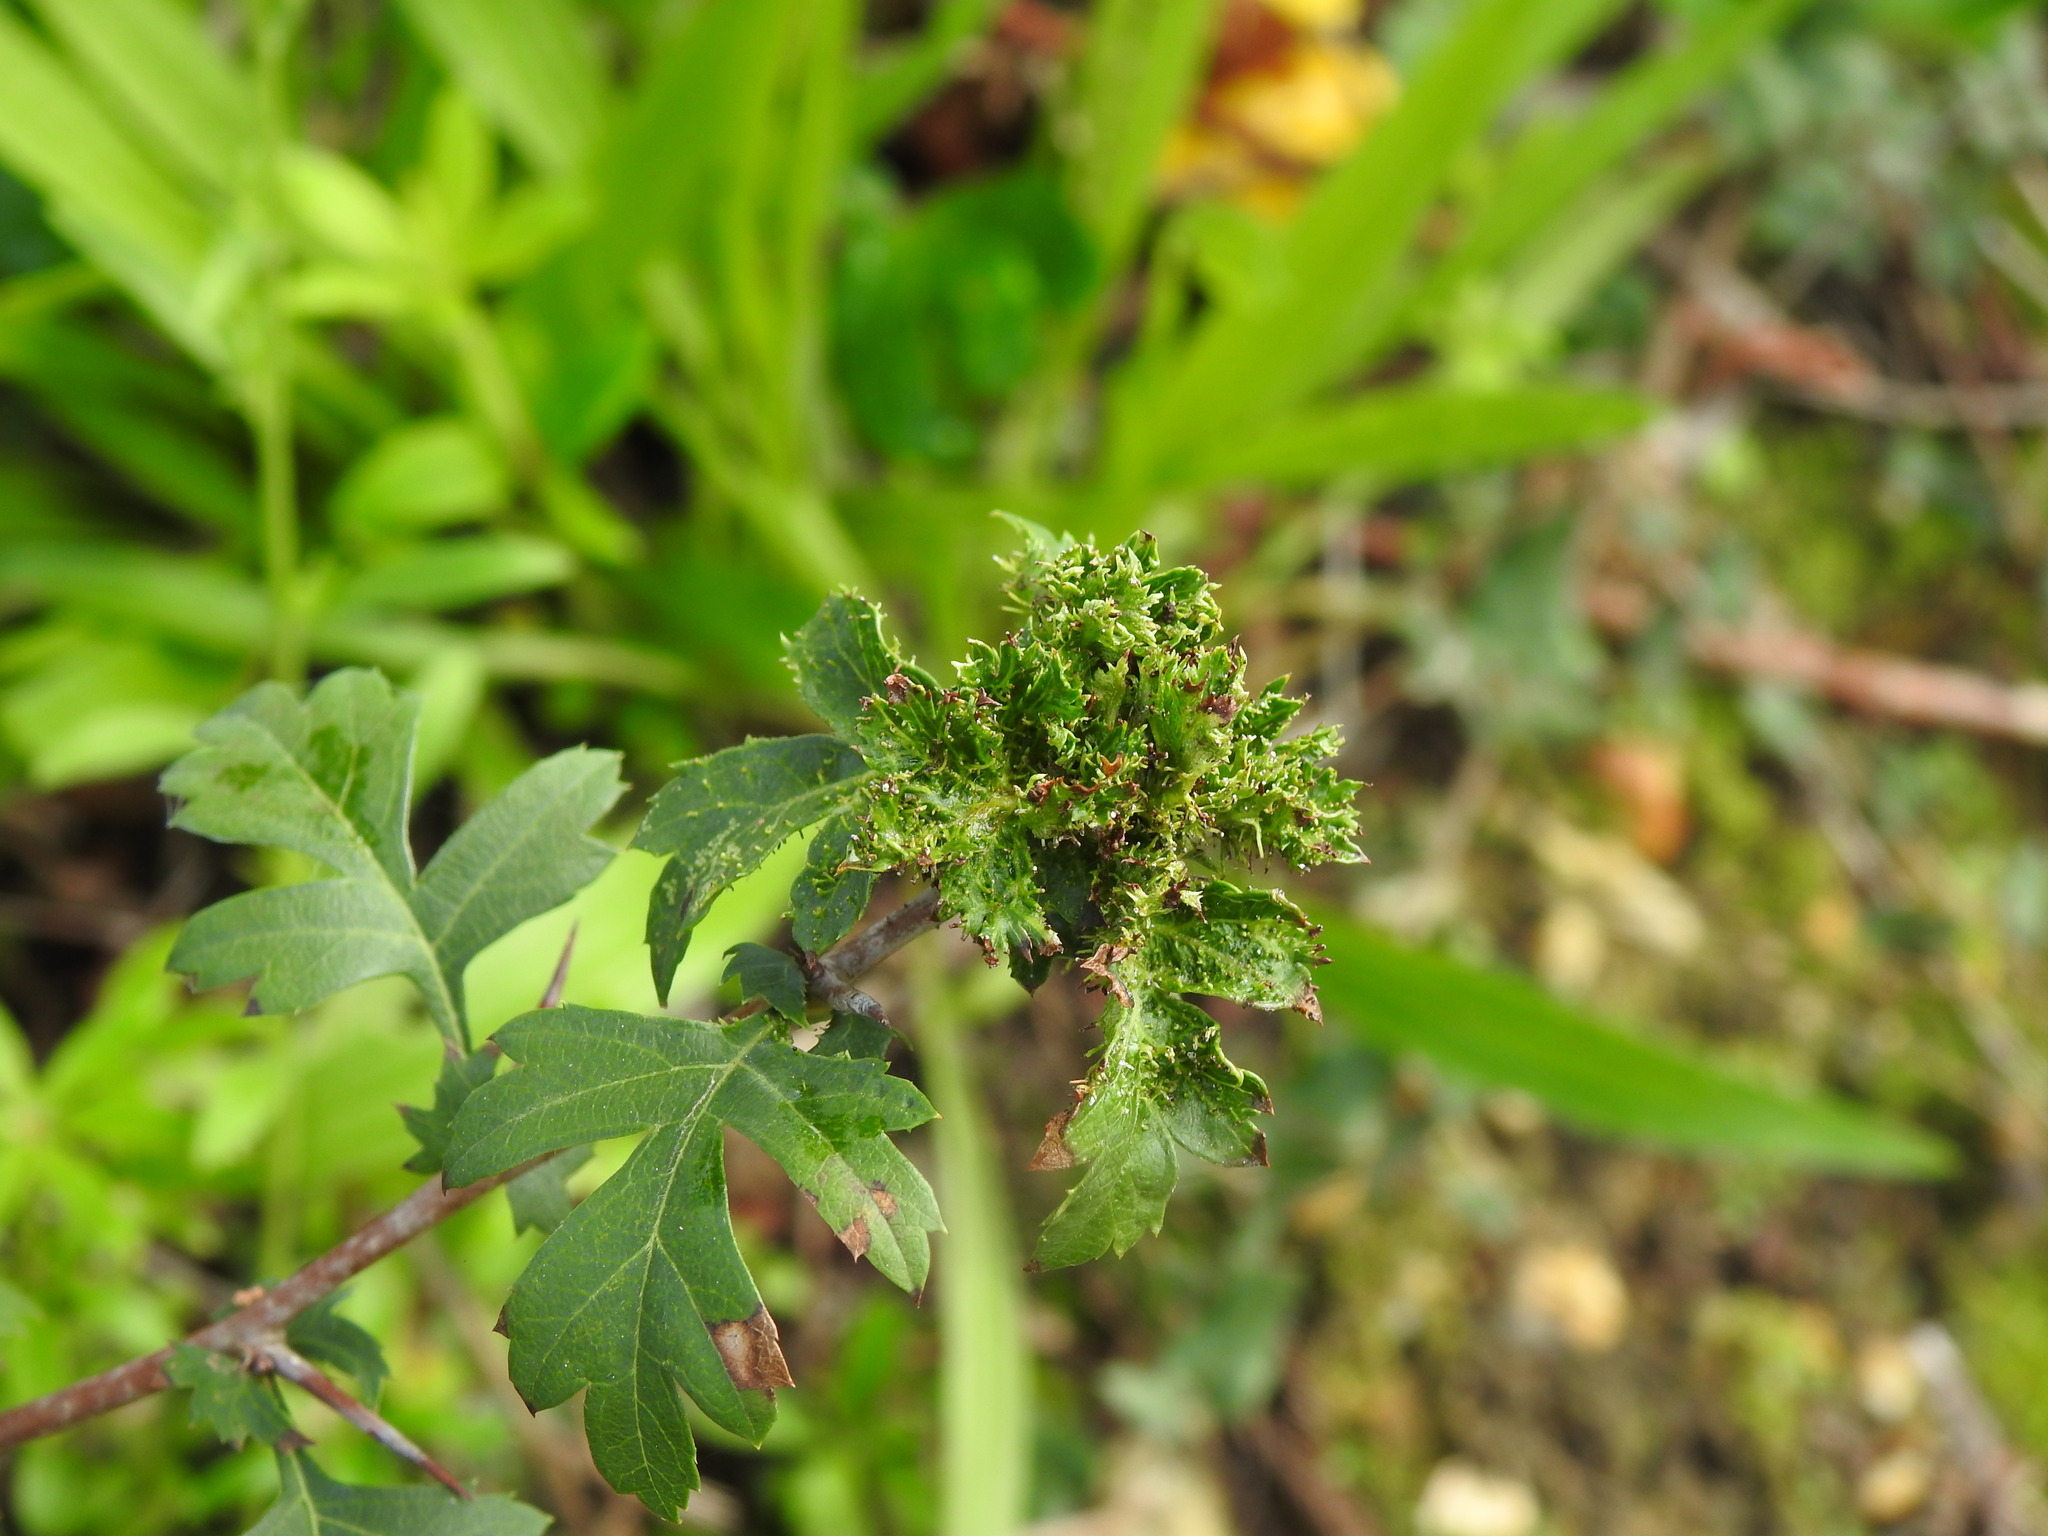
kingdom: Animalia
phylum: Arthropoda
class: Insecta
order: Diptera
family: Cecidomyiidae
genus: Dasineura
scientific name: Dasineura crataegi
